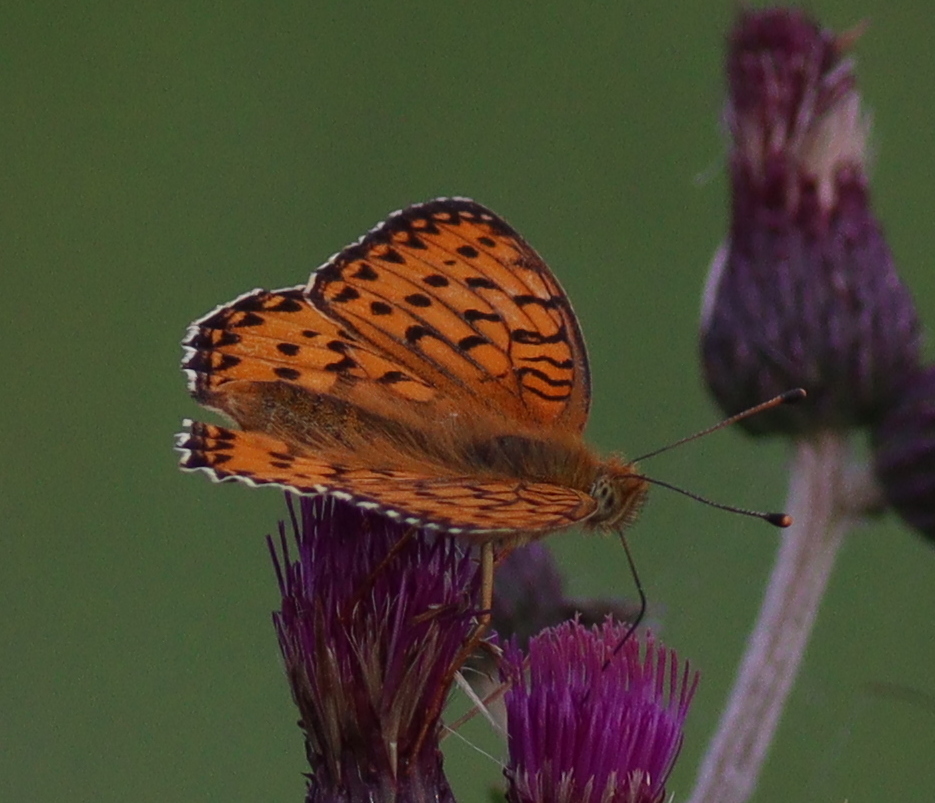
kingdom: Animalia
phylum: Arthropoda
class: Insecta
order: Lepidoptera
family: Nymphalidae
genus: Speyeria
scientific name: Speyeria aglaja
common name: Dark green fritillary
